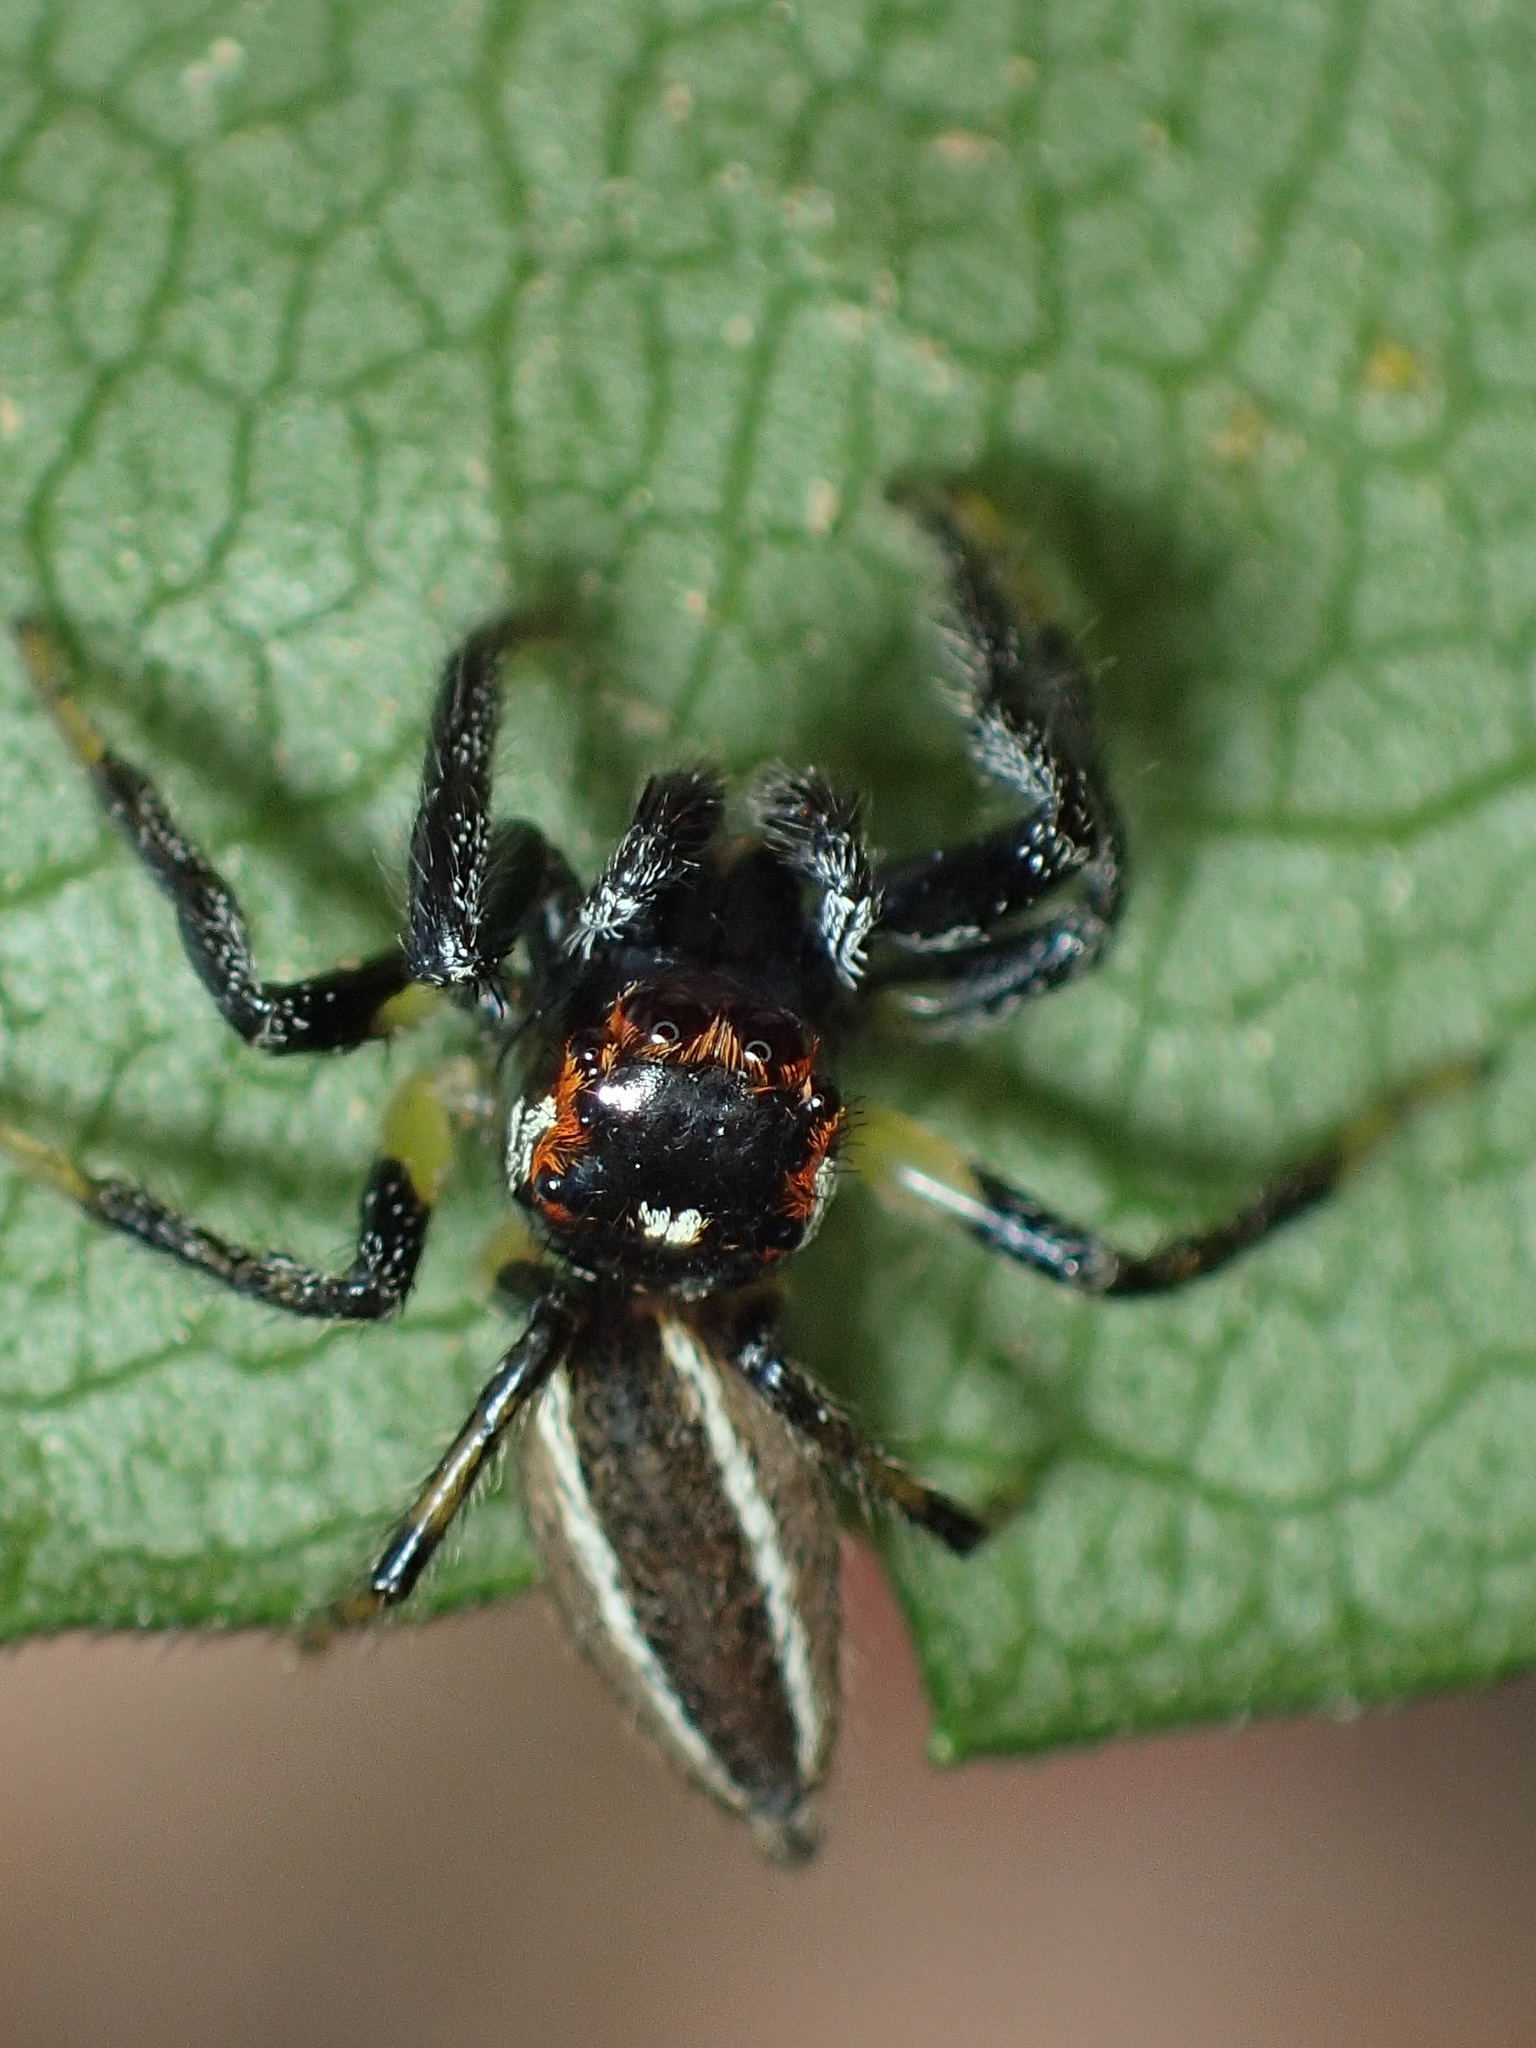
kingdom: Animalia
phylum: Arthropoda
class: Arachnida
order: Araneae
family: Salticidae
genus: Colonus
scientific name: Colonus sylvanus
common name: Jumping spiders
